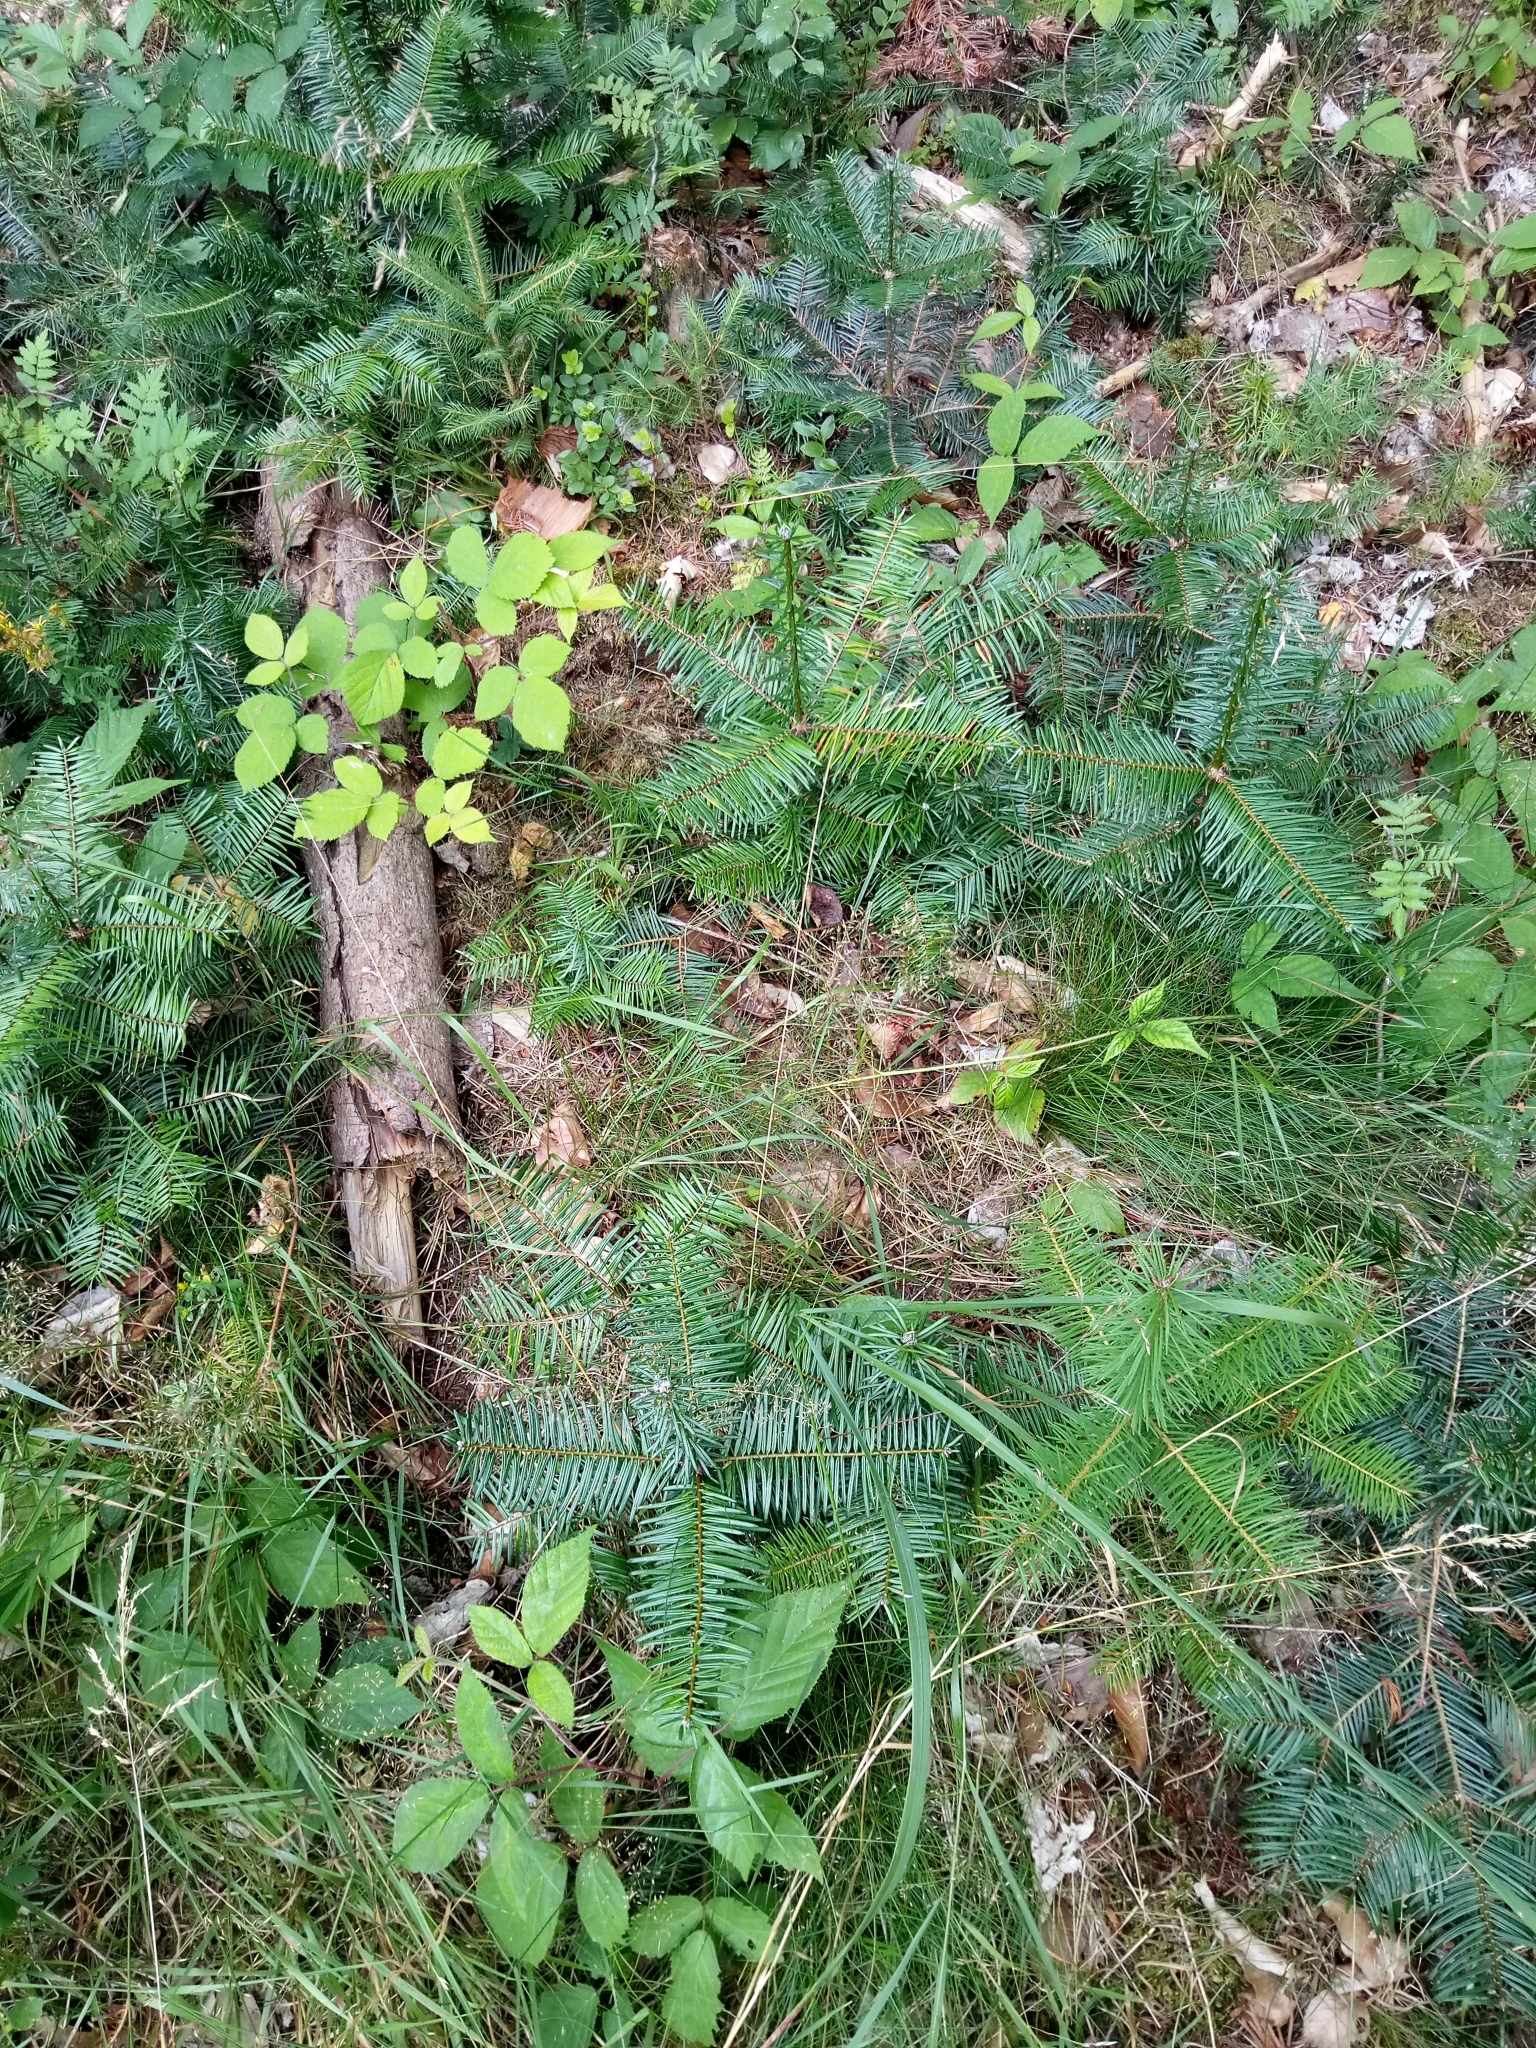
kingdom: Plantae
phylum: Tracheophyta
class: Pinopsida
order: Pinales
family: Pinaceae
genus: Abies
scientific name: Abies grandis
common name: Giant fir
